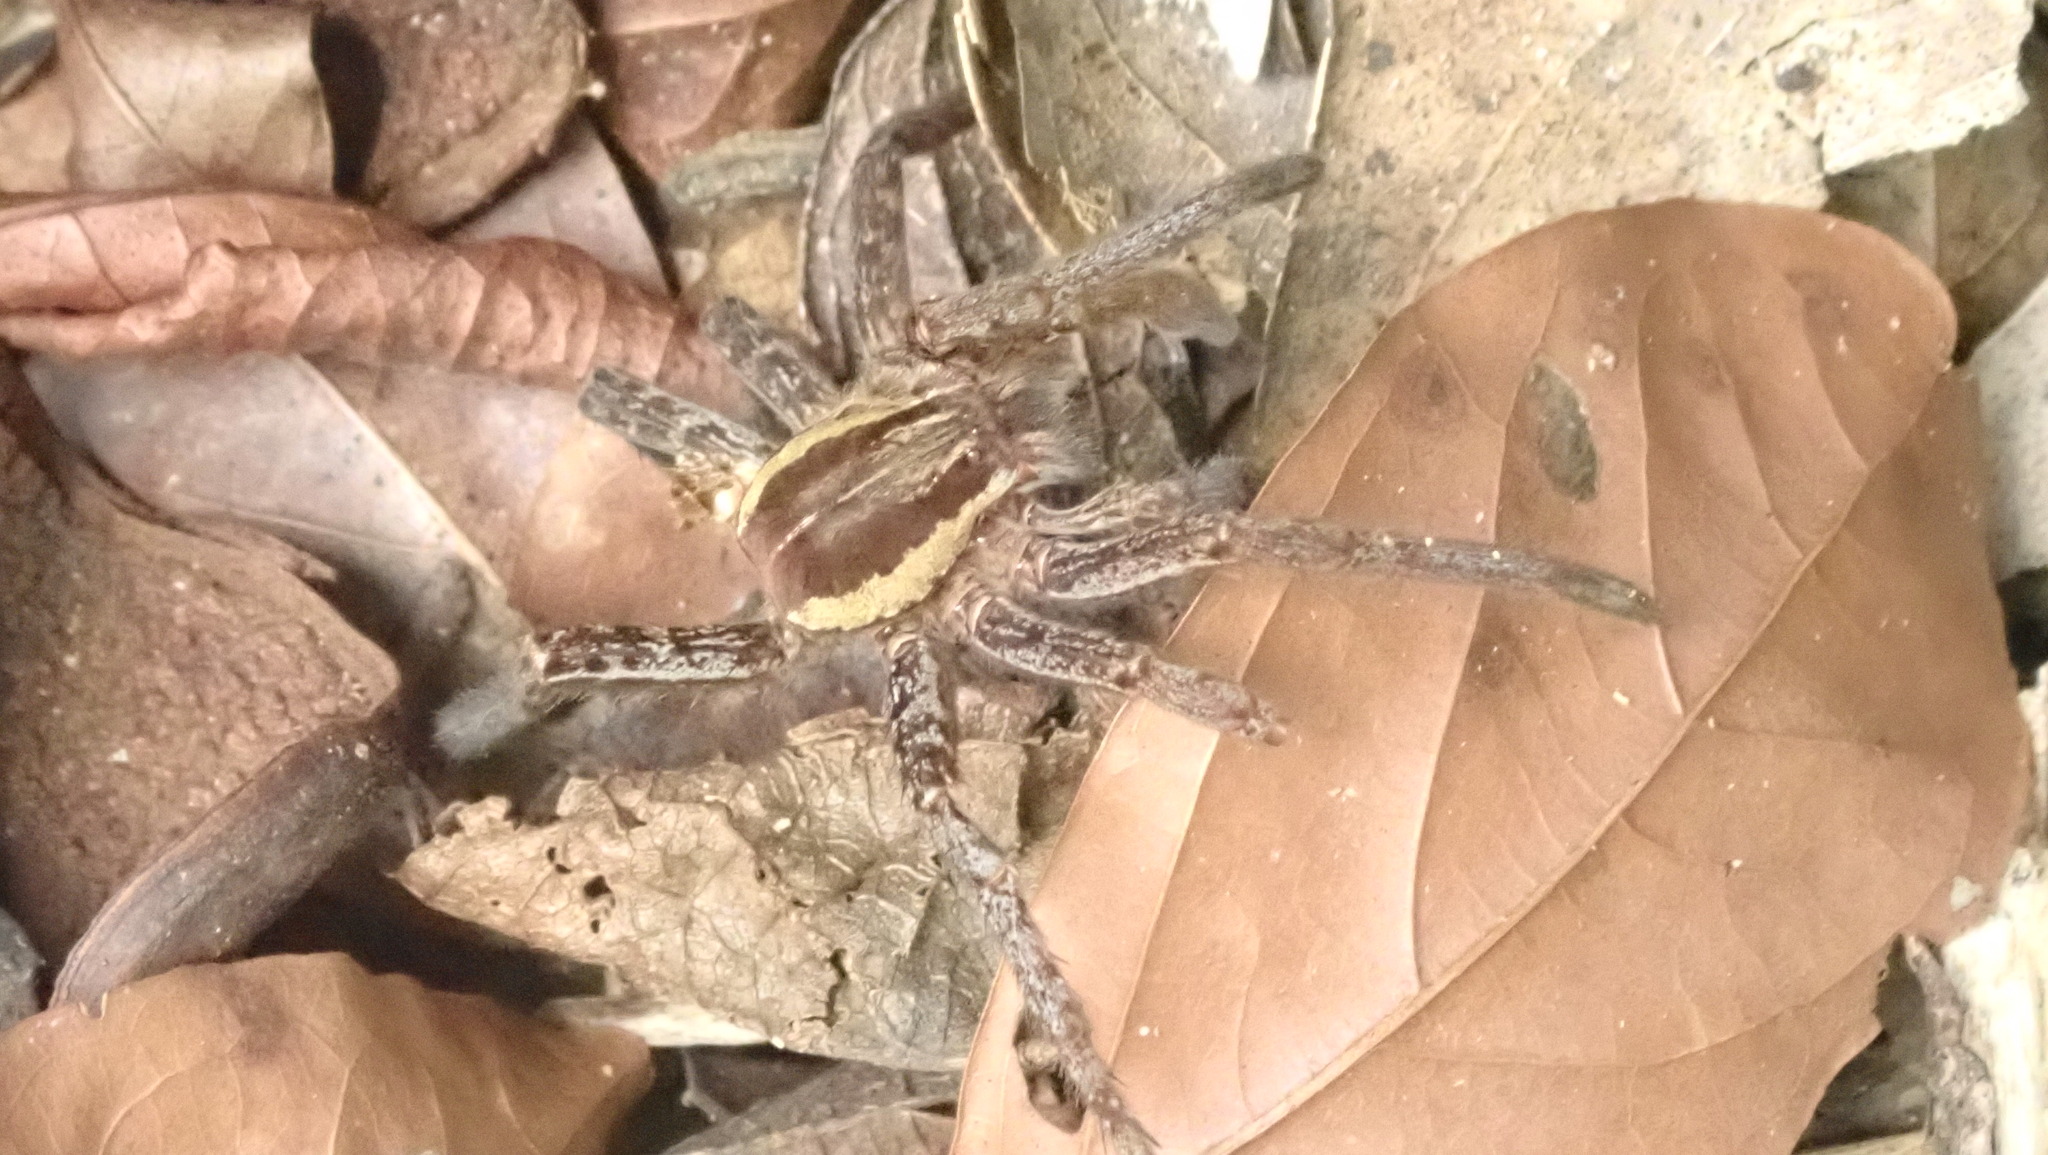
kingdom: Animalia
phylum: Arthropoda
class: Arachnida
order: Araneae
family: Ctenidae
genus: Ancylometes
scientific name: Ancylometes
